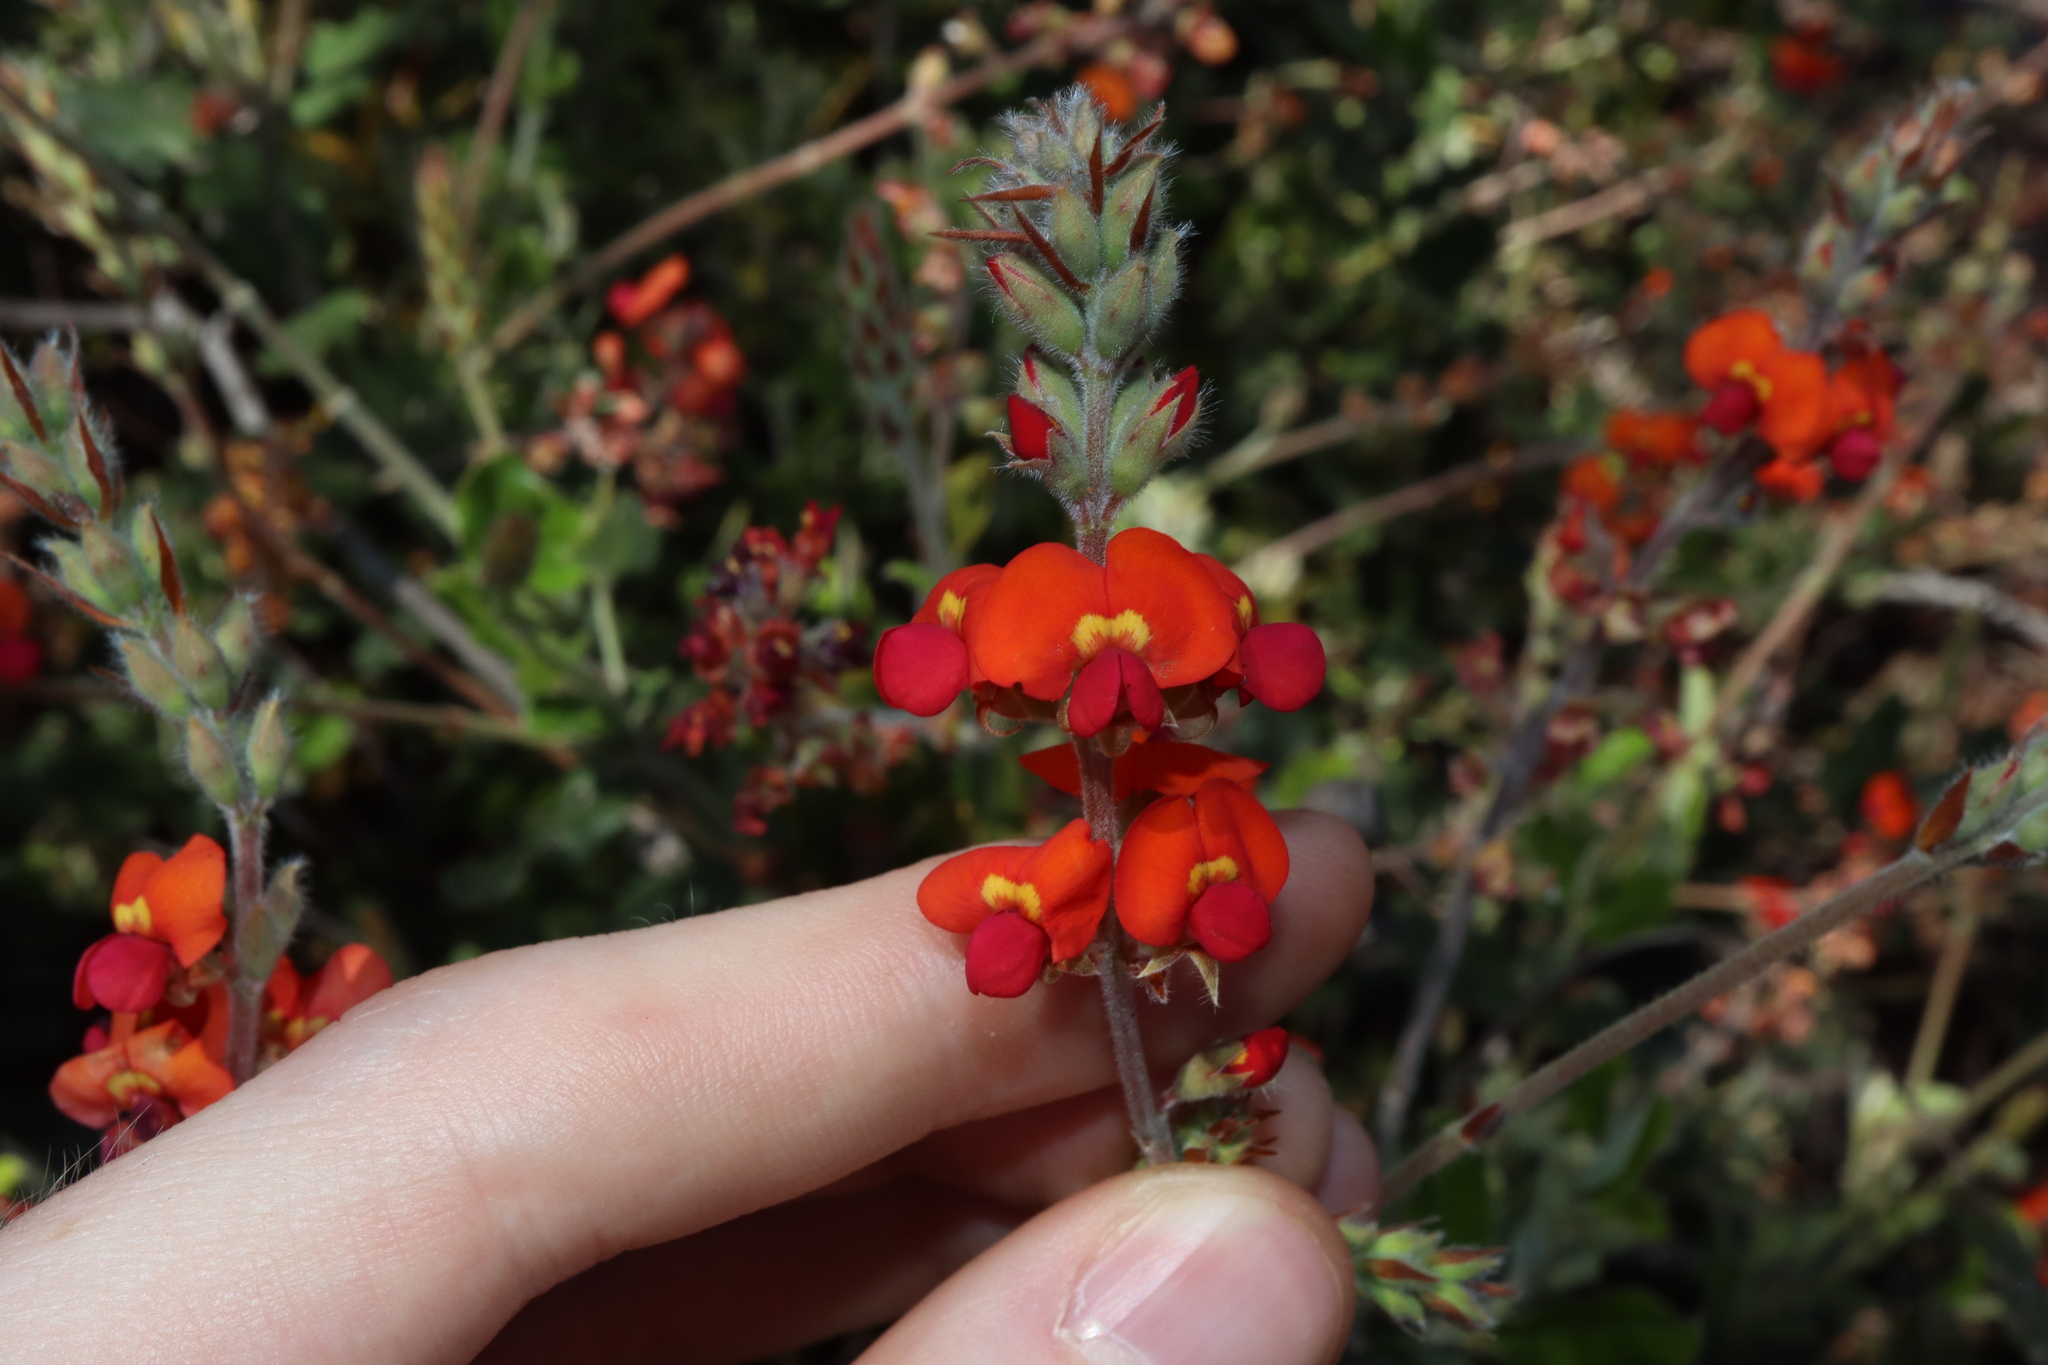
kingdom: Plantae
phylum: Tracheophyta
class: Magnoliopsida
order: Fabales
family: Fabaceae
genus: Gastrolobium
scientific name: Gastrolobium villosum
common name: Crinkle-leaf poison
